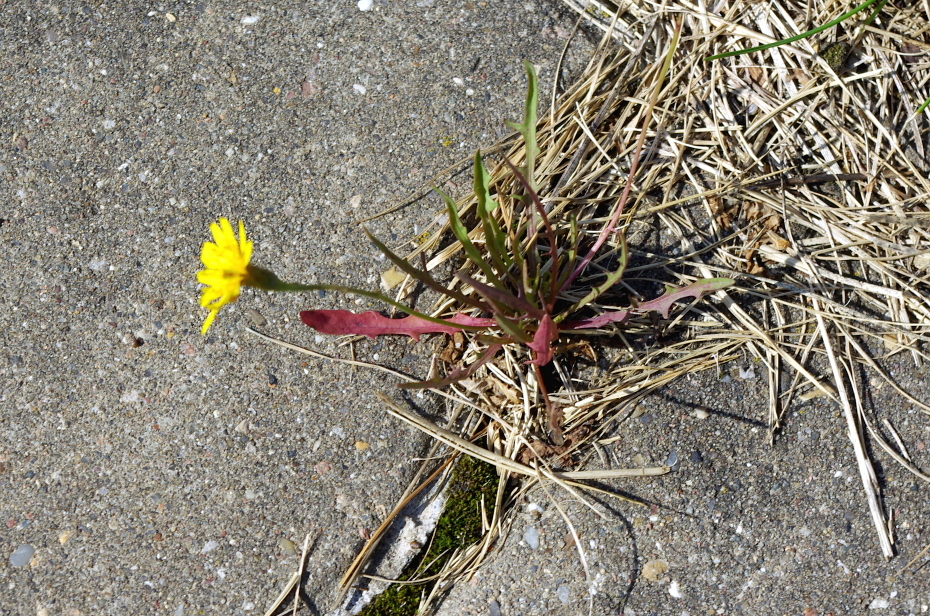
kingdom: Plantae
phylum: Tracheophyta
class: Magnoliopsida
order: Asterales
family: Asteraceae
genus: Scorzoneroides
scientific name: Scorzoneroides autumnalis
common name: Autumn hawkbit
